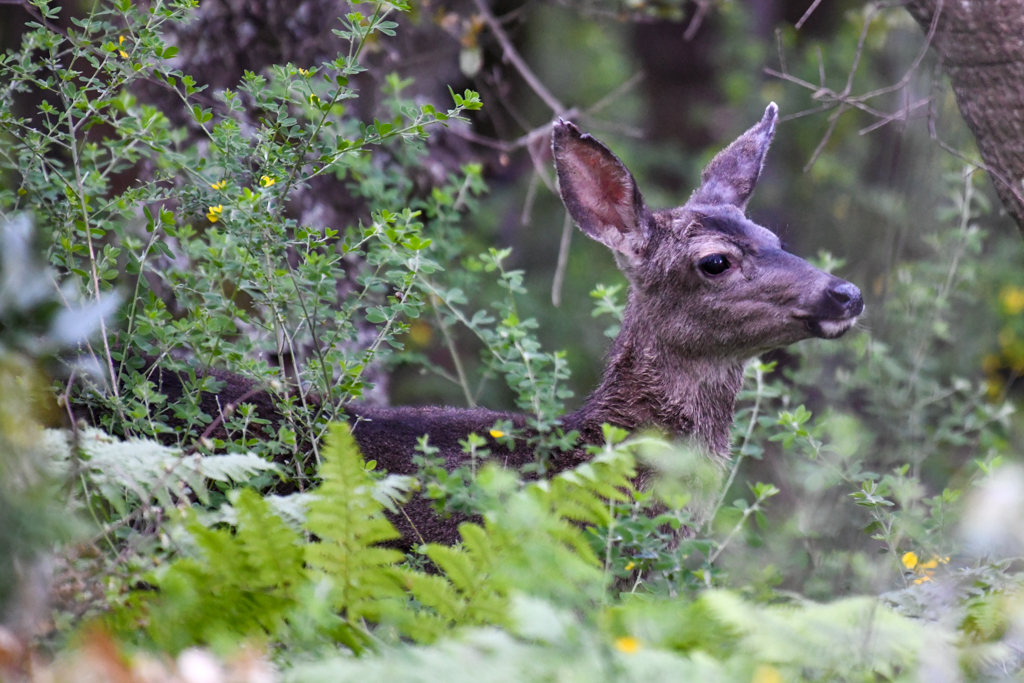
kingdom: Animalia
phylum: Chordata
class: Mammalia
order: Artiodactyla
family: Cervidae
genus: Odocoileus
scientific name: Odocoileus hemionus
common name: Mule deer
